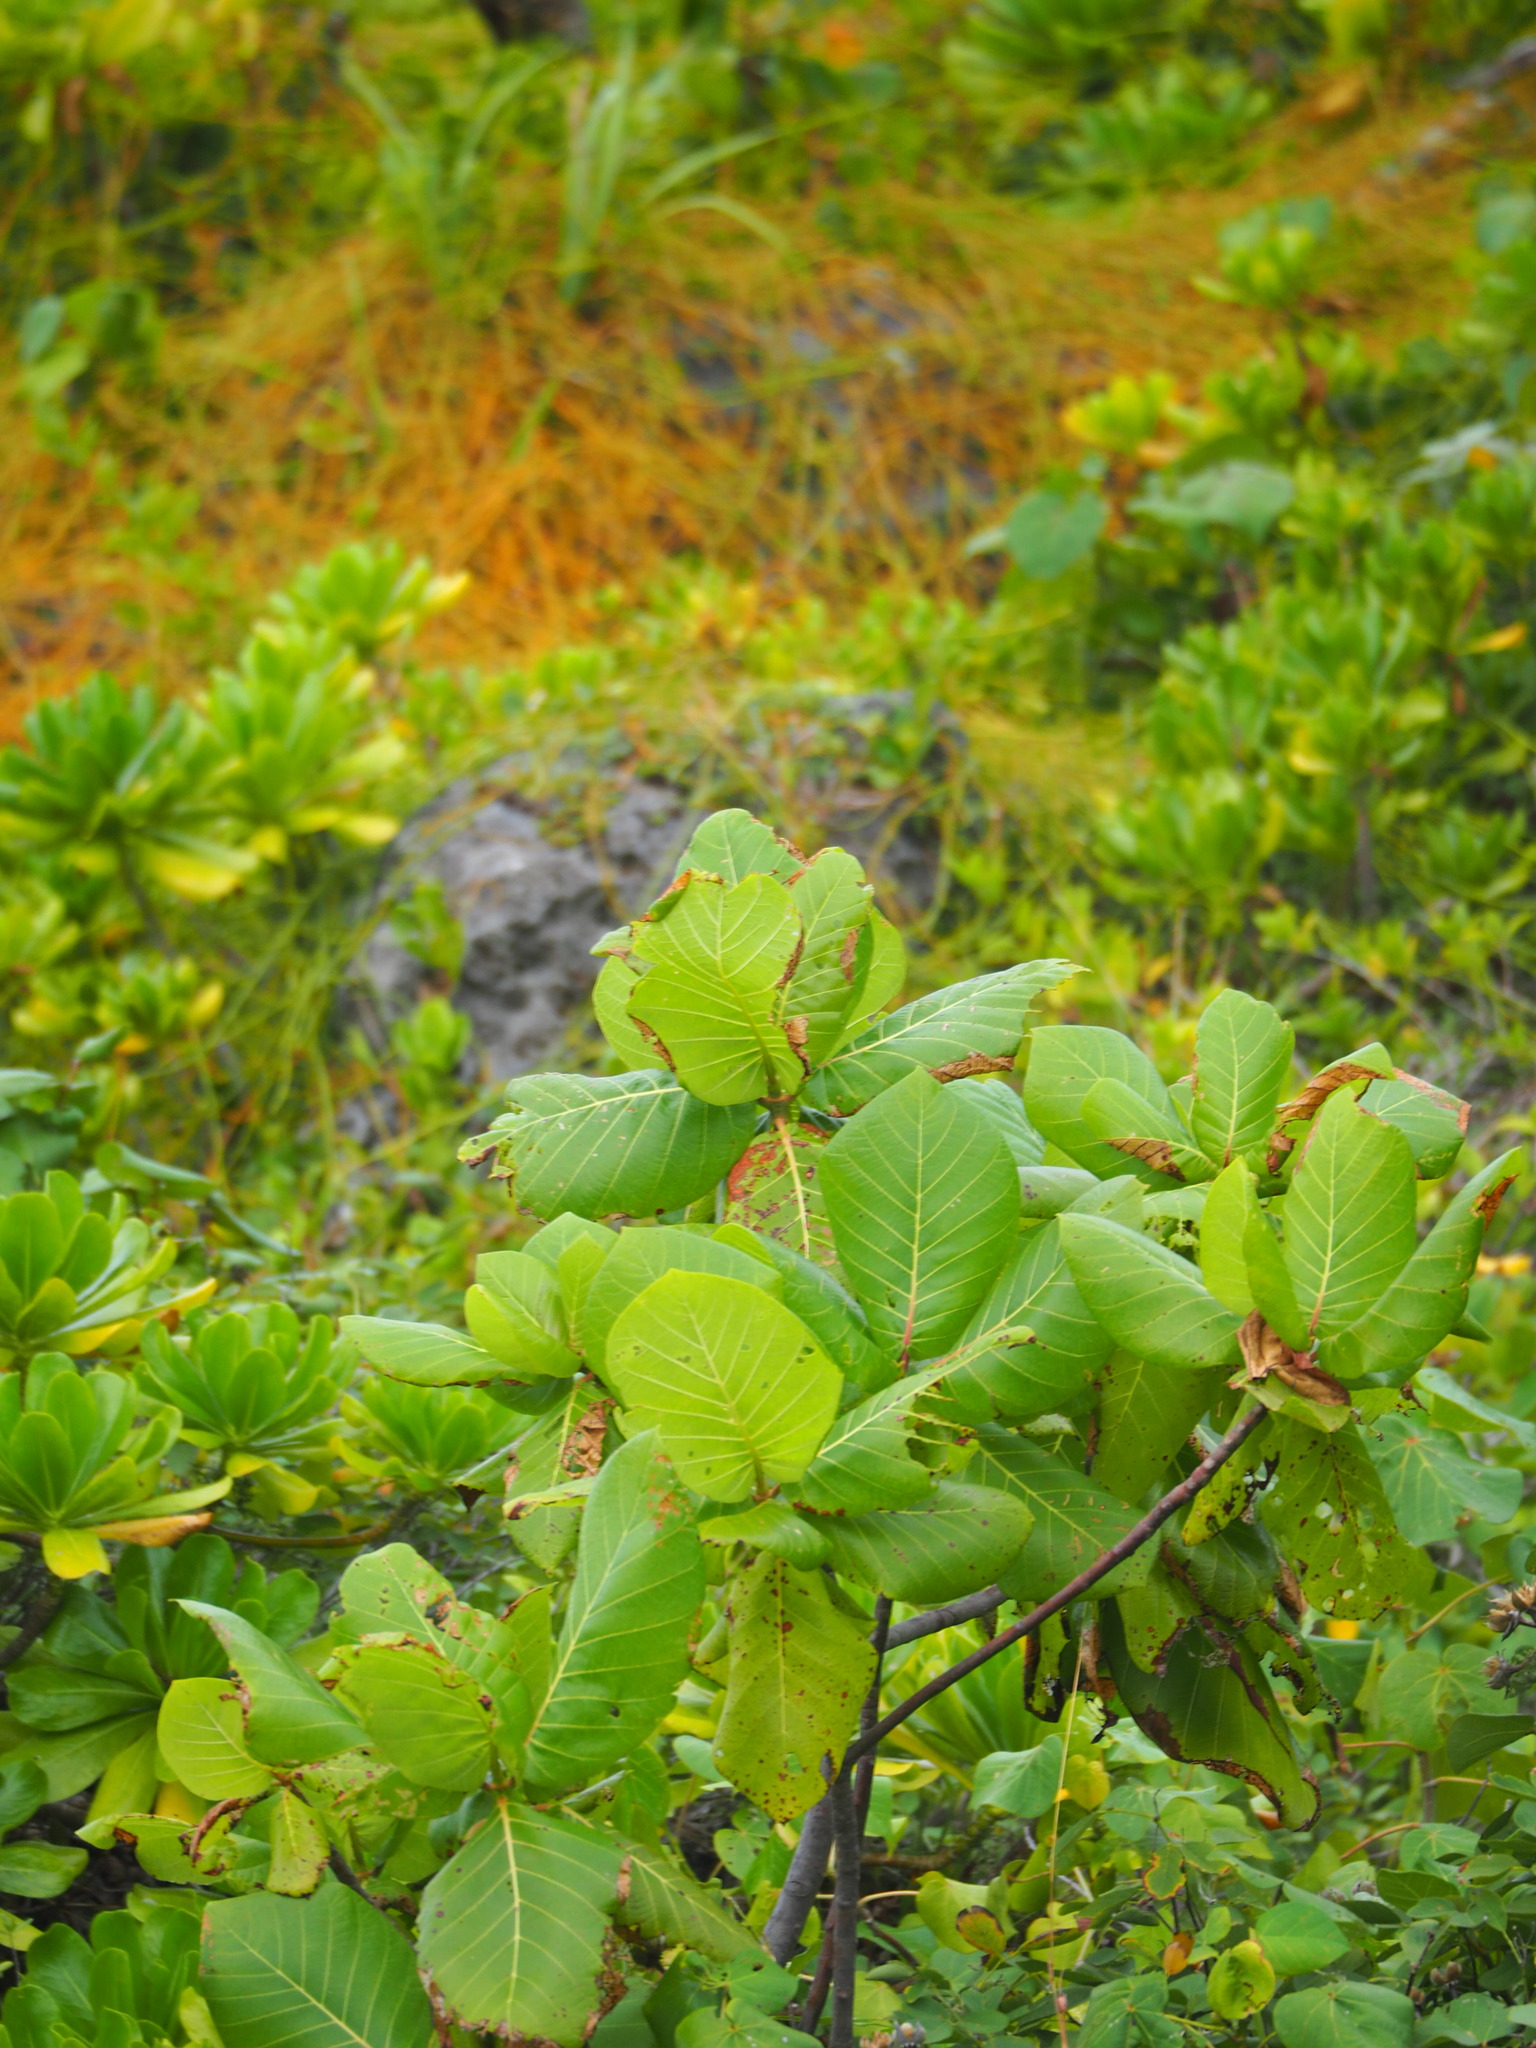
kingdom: Plantae
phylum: Tracheophyta
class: Magnoliopsida
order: Gentianales
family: Rubiaceae
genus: Guettarda
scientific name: Guettarda speciosa
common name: Sea randa
